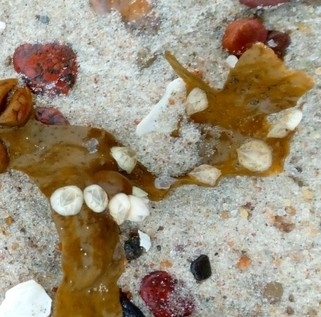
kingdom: Animalia
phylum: Arthropoda
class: Maxillopoda
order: Sessilia
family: Balanidae
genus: Amphibalanus
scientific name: Amphibalanus improvisus
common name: Bay barnacle
